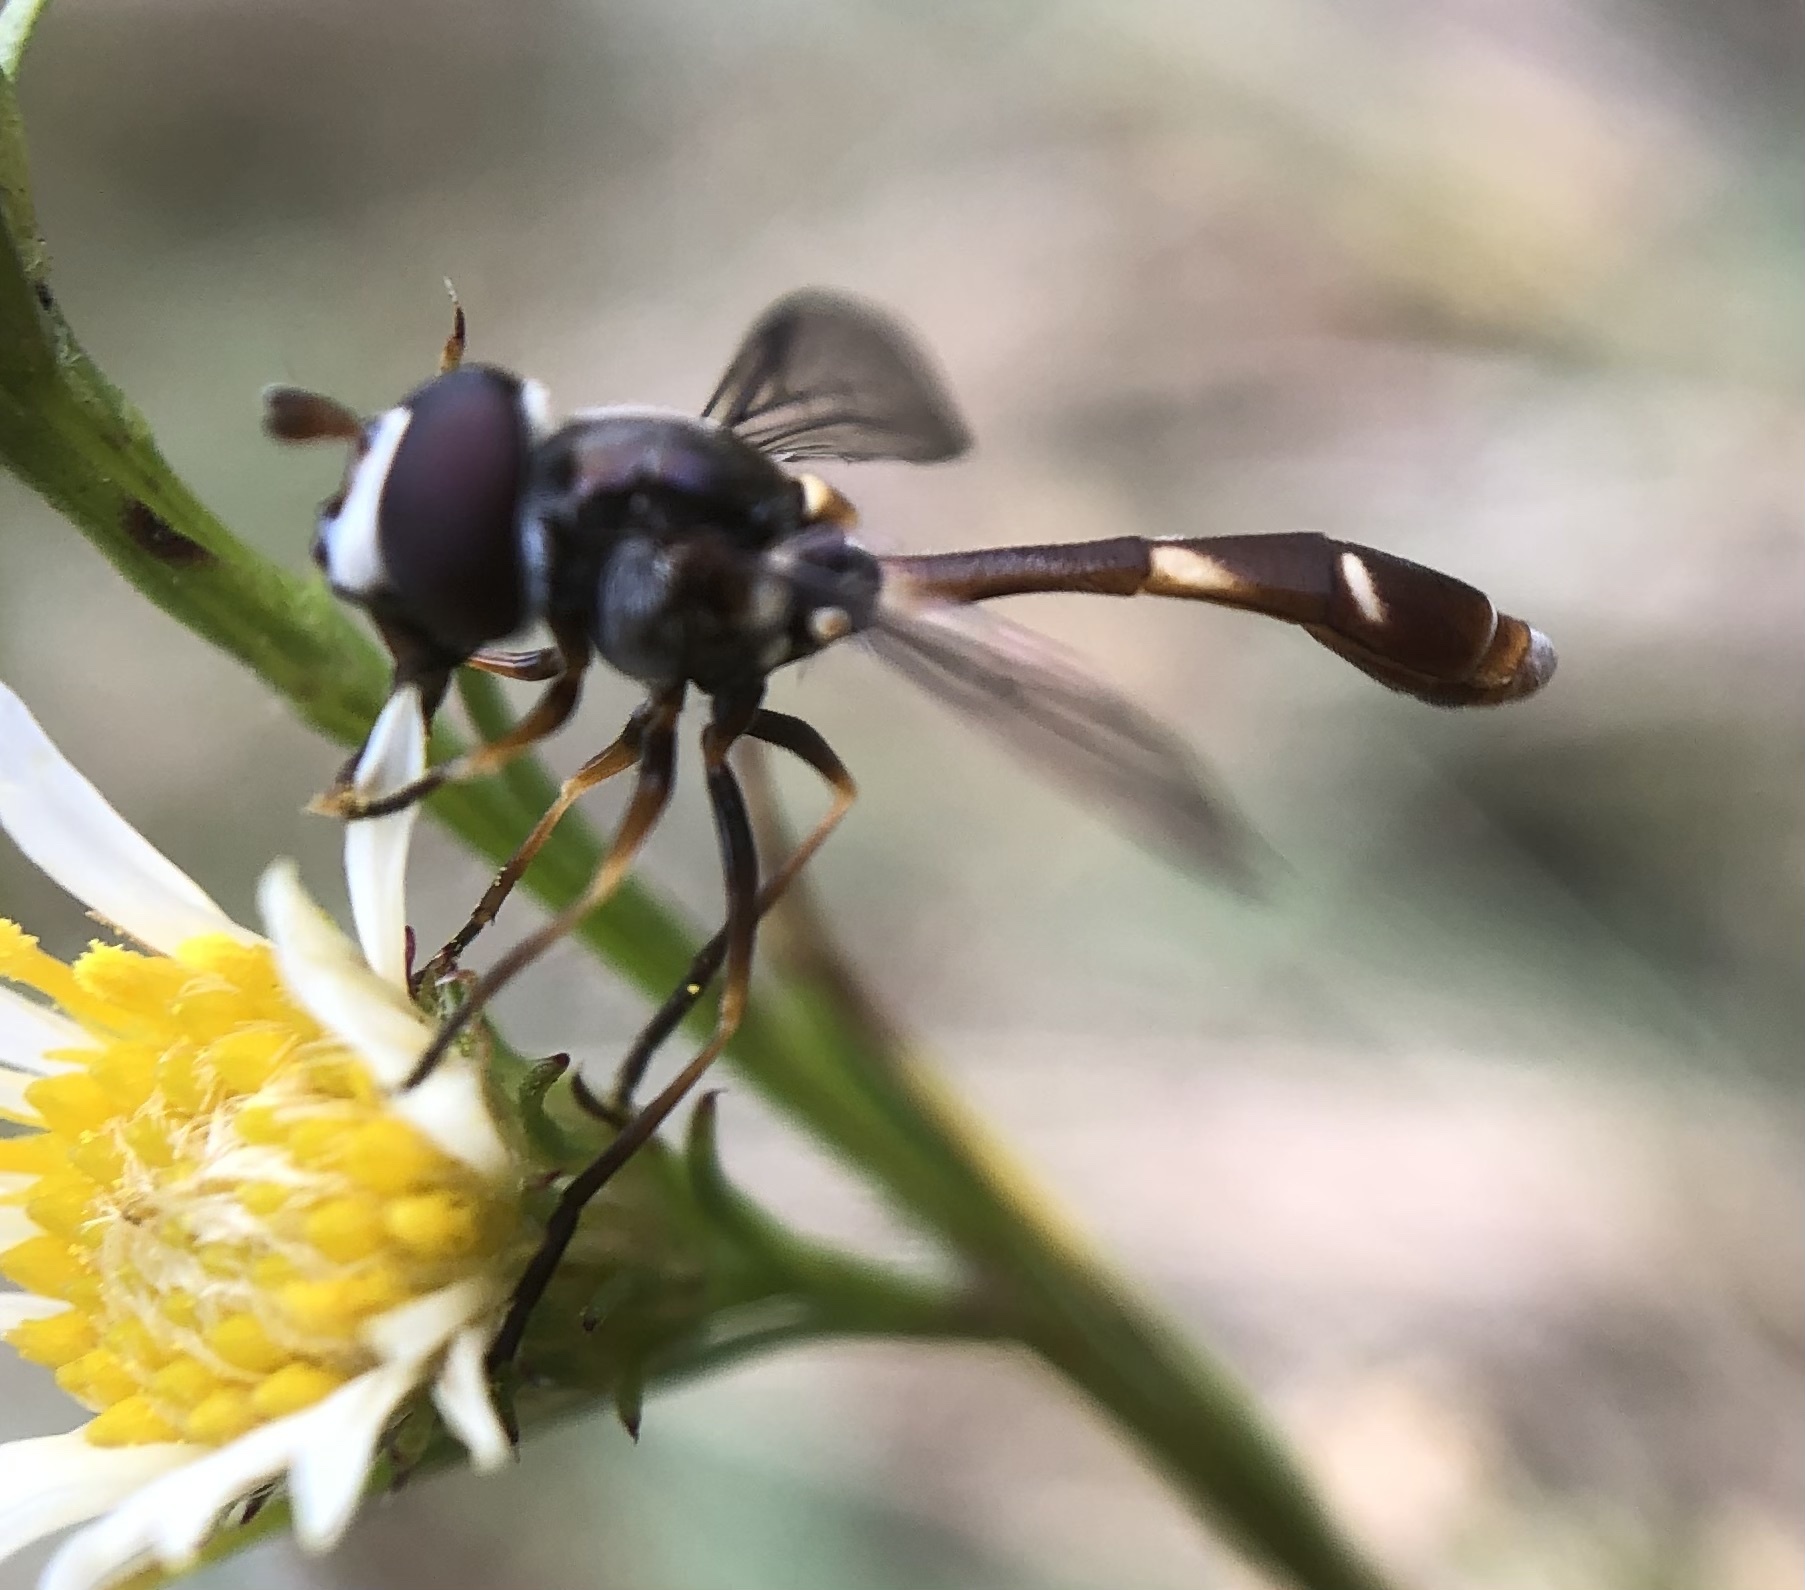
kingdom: Animalia
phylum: Arthropoda
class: Insecta
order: Diptera
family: Syrphidae
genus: Dioprosopa
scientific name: Dioprosopa clavatus
